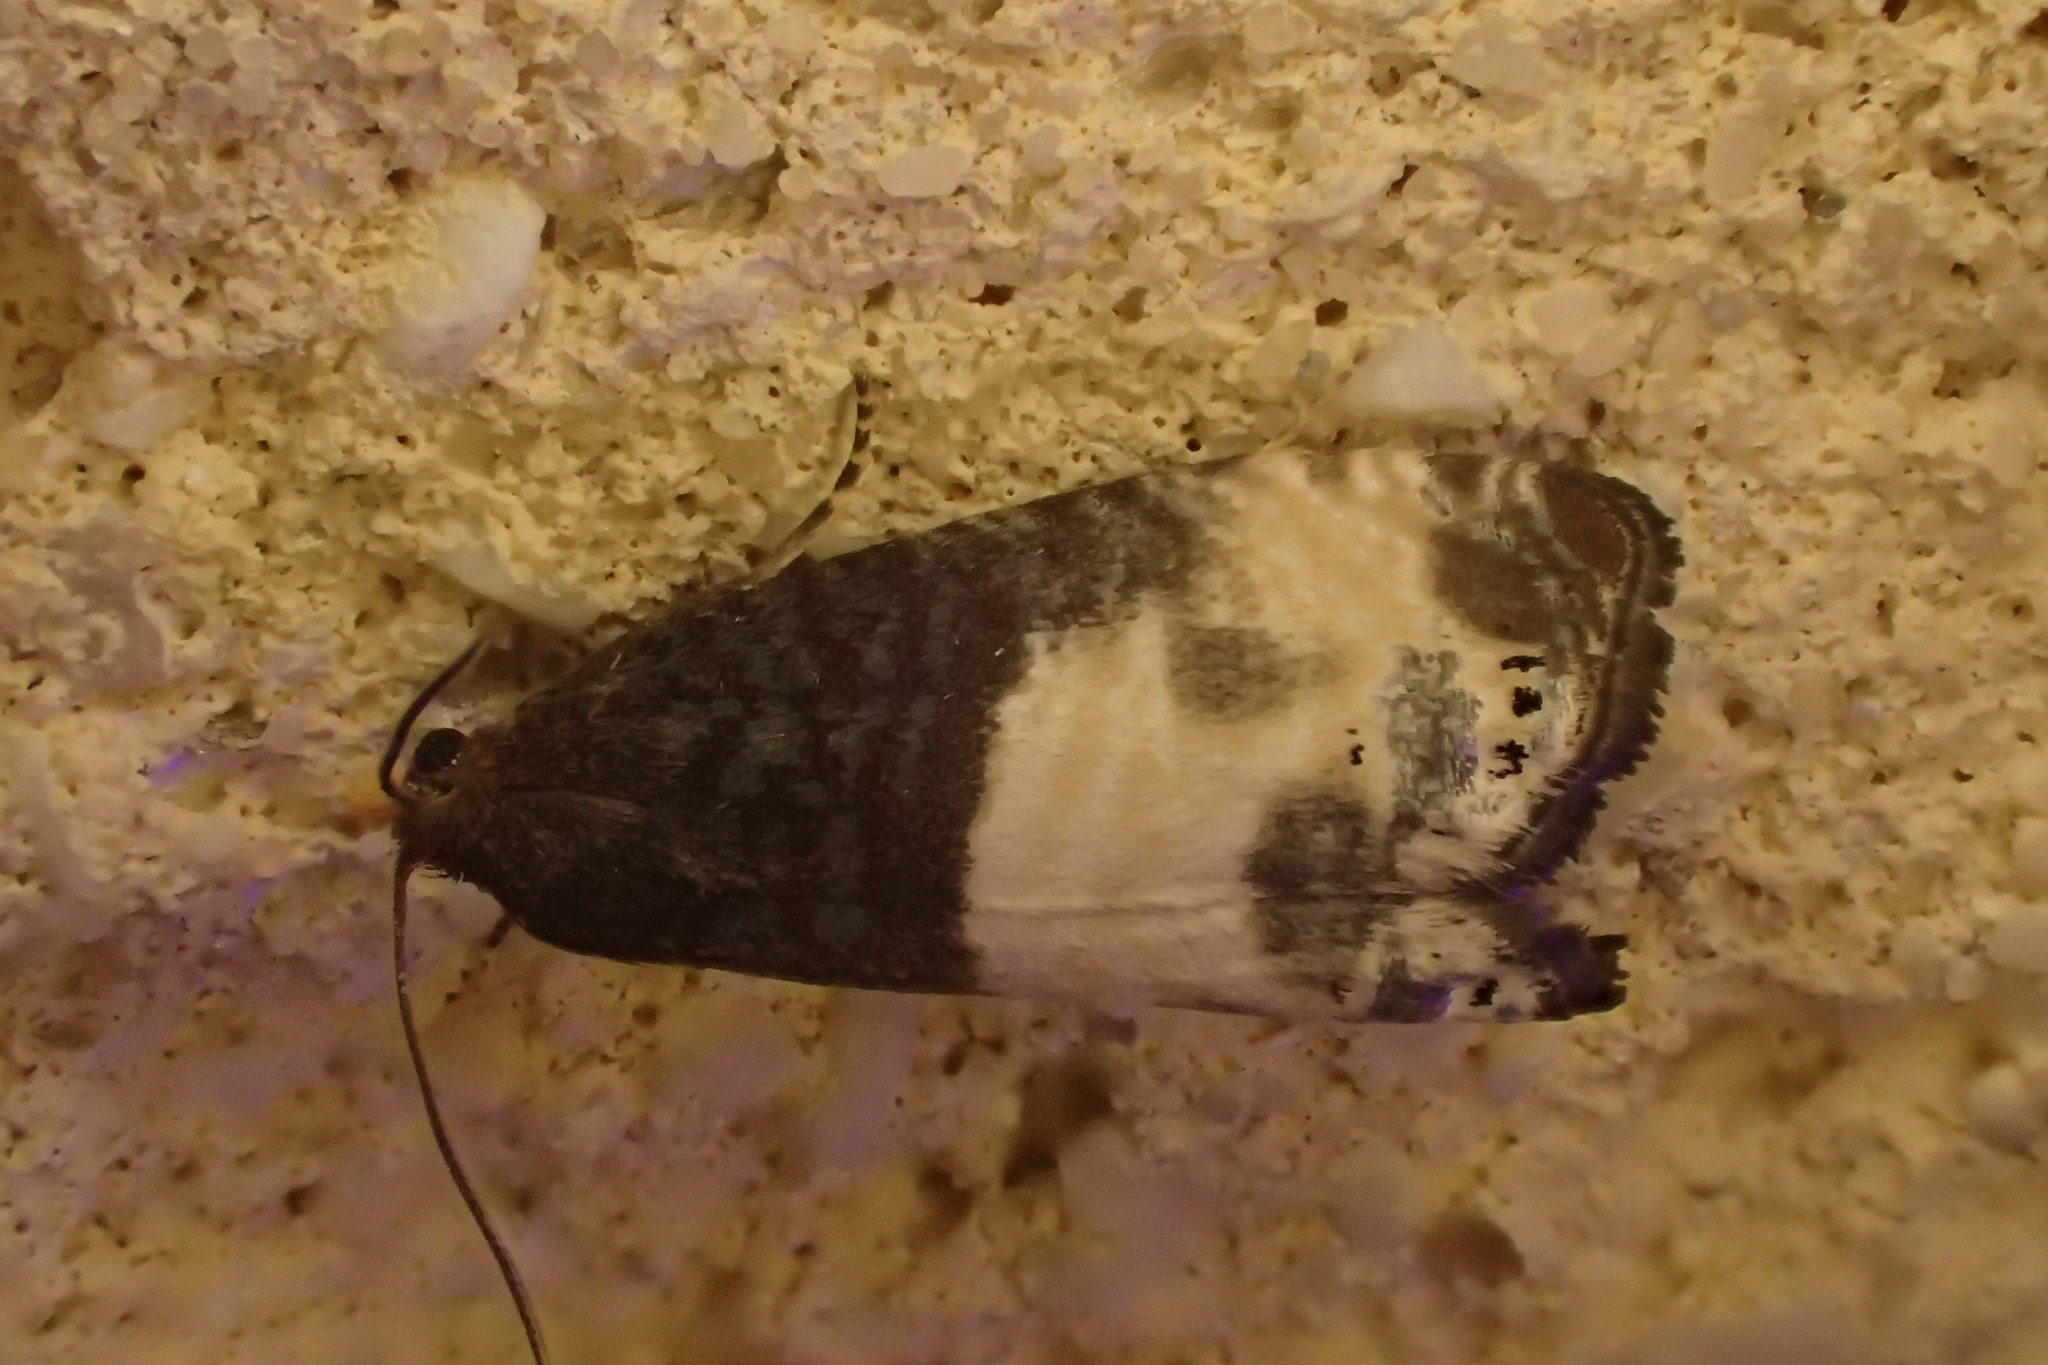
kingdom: Animalia
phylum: Arthropoda
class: Insecta
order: Lepidoptera
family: Tortricidae
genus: Notocelia
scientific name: Notocelia cynosbatella
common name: Yellow-faced bell moth
